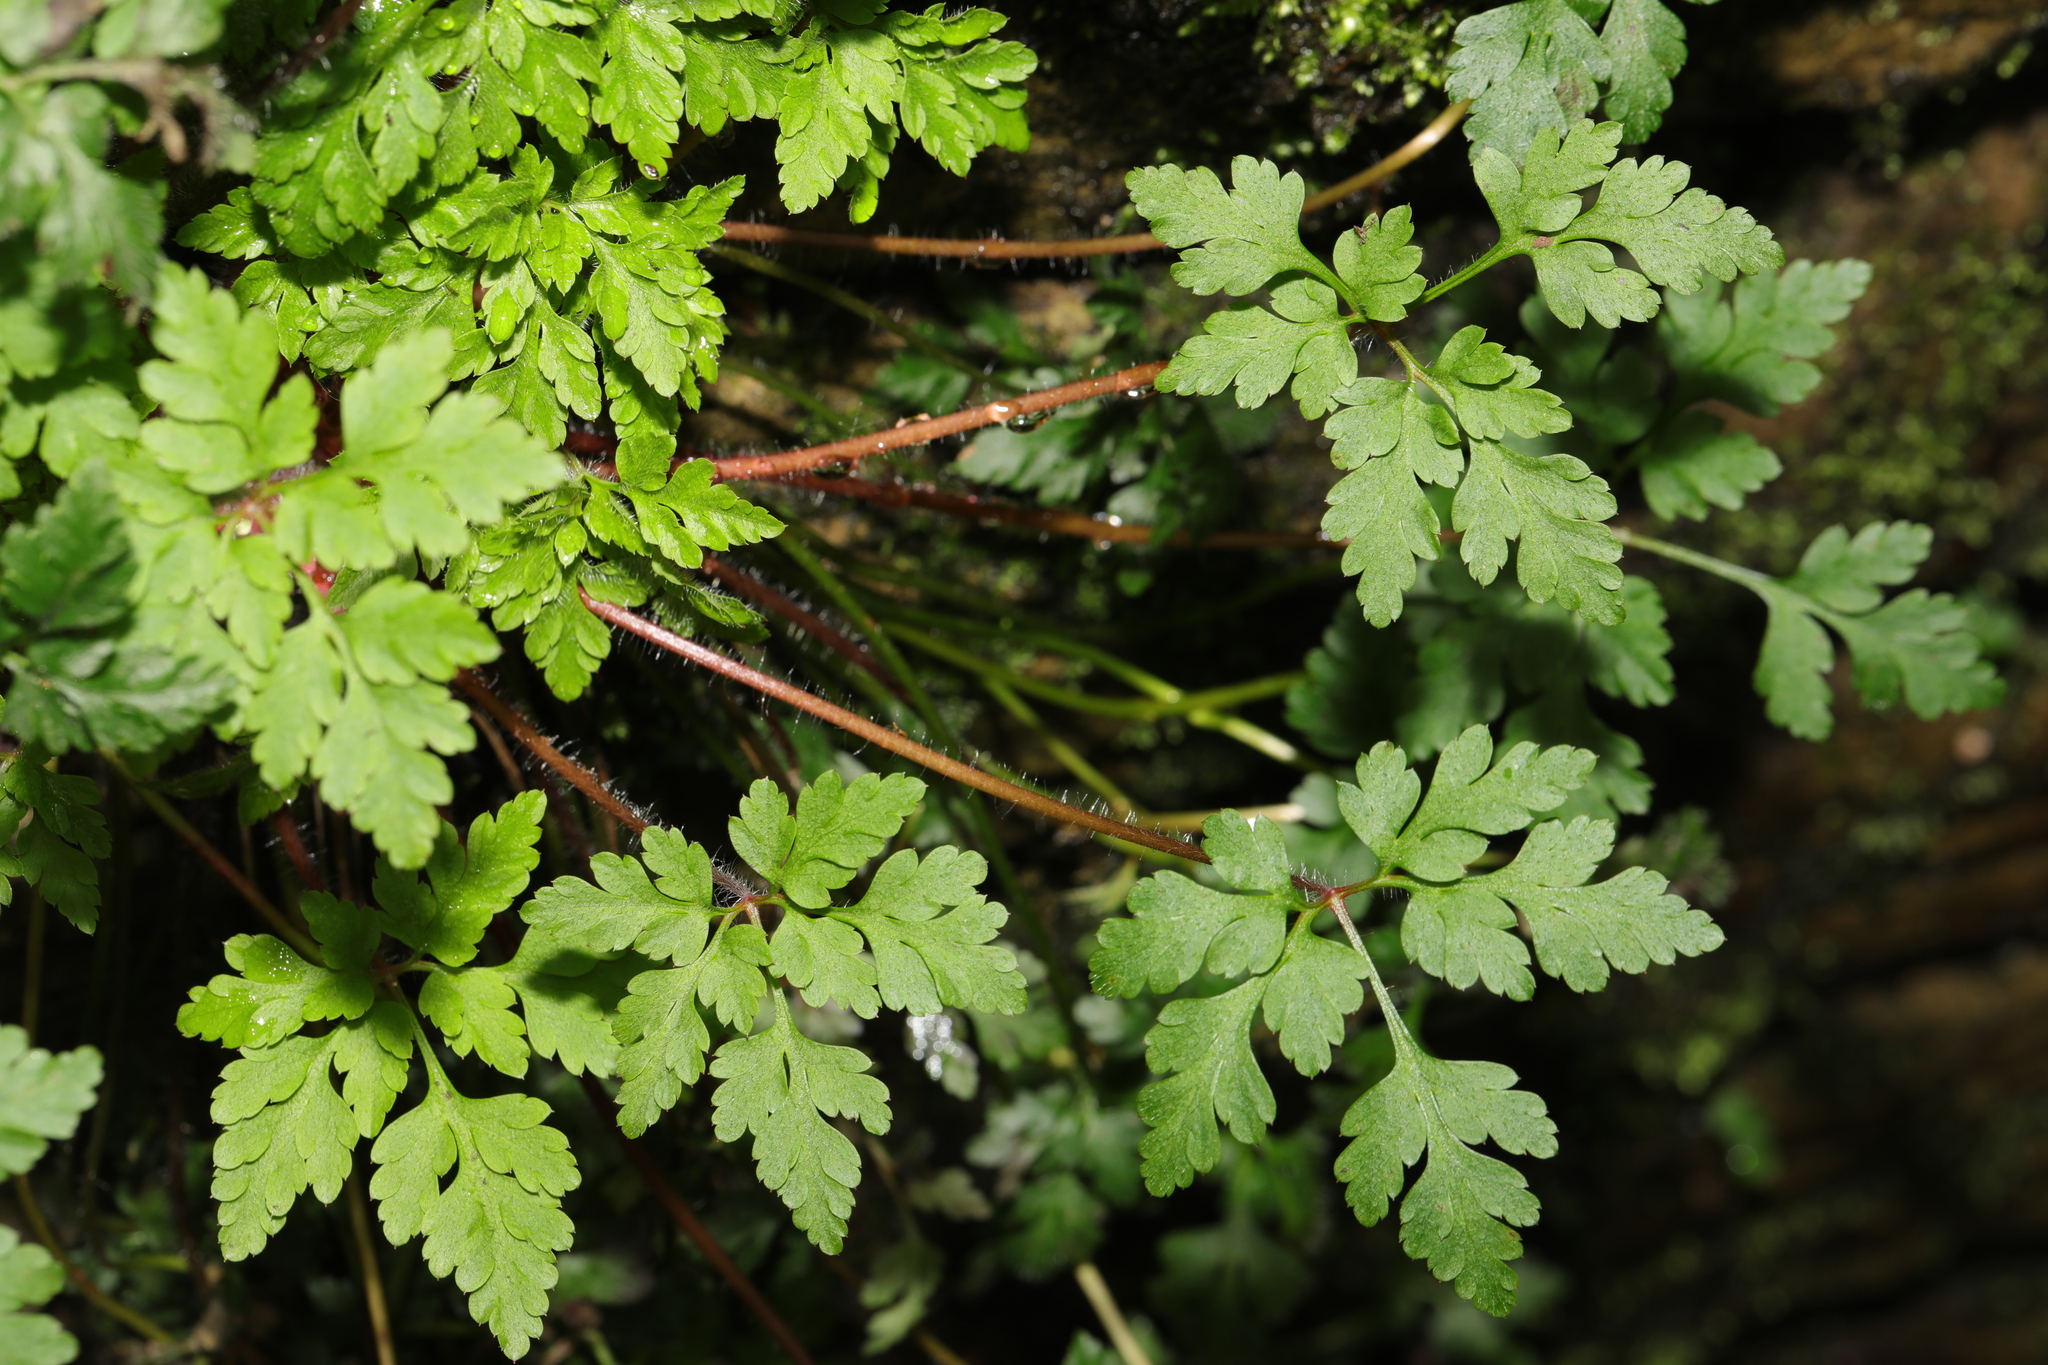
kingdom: Plantae
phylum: Tracheophyta
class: Magnoliopsida
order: Geraniales
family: Geraniaceae
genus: Geranium
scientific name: Geranium robertianum
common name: Herb-robert
